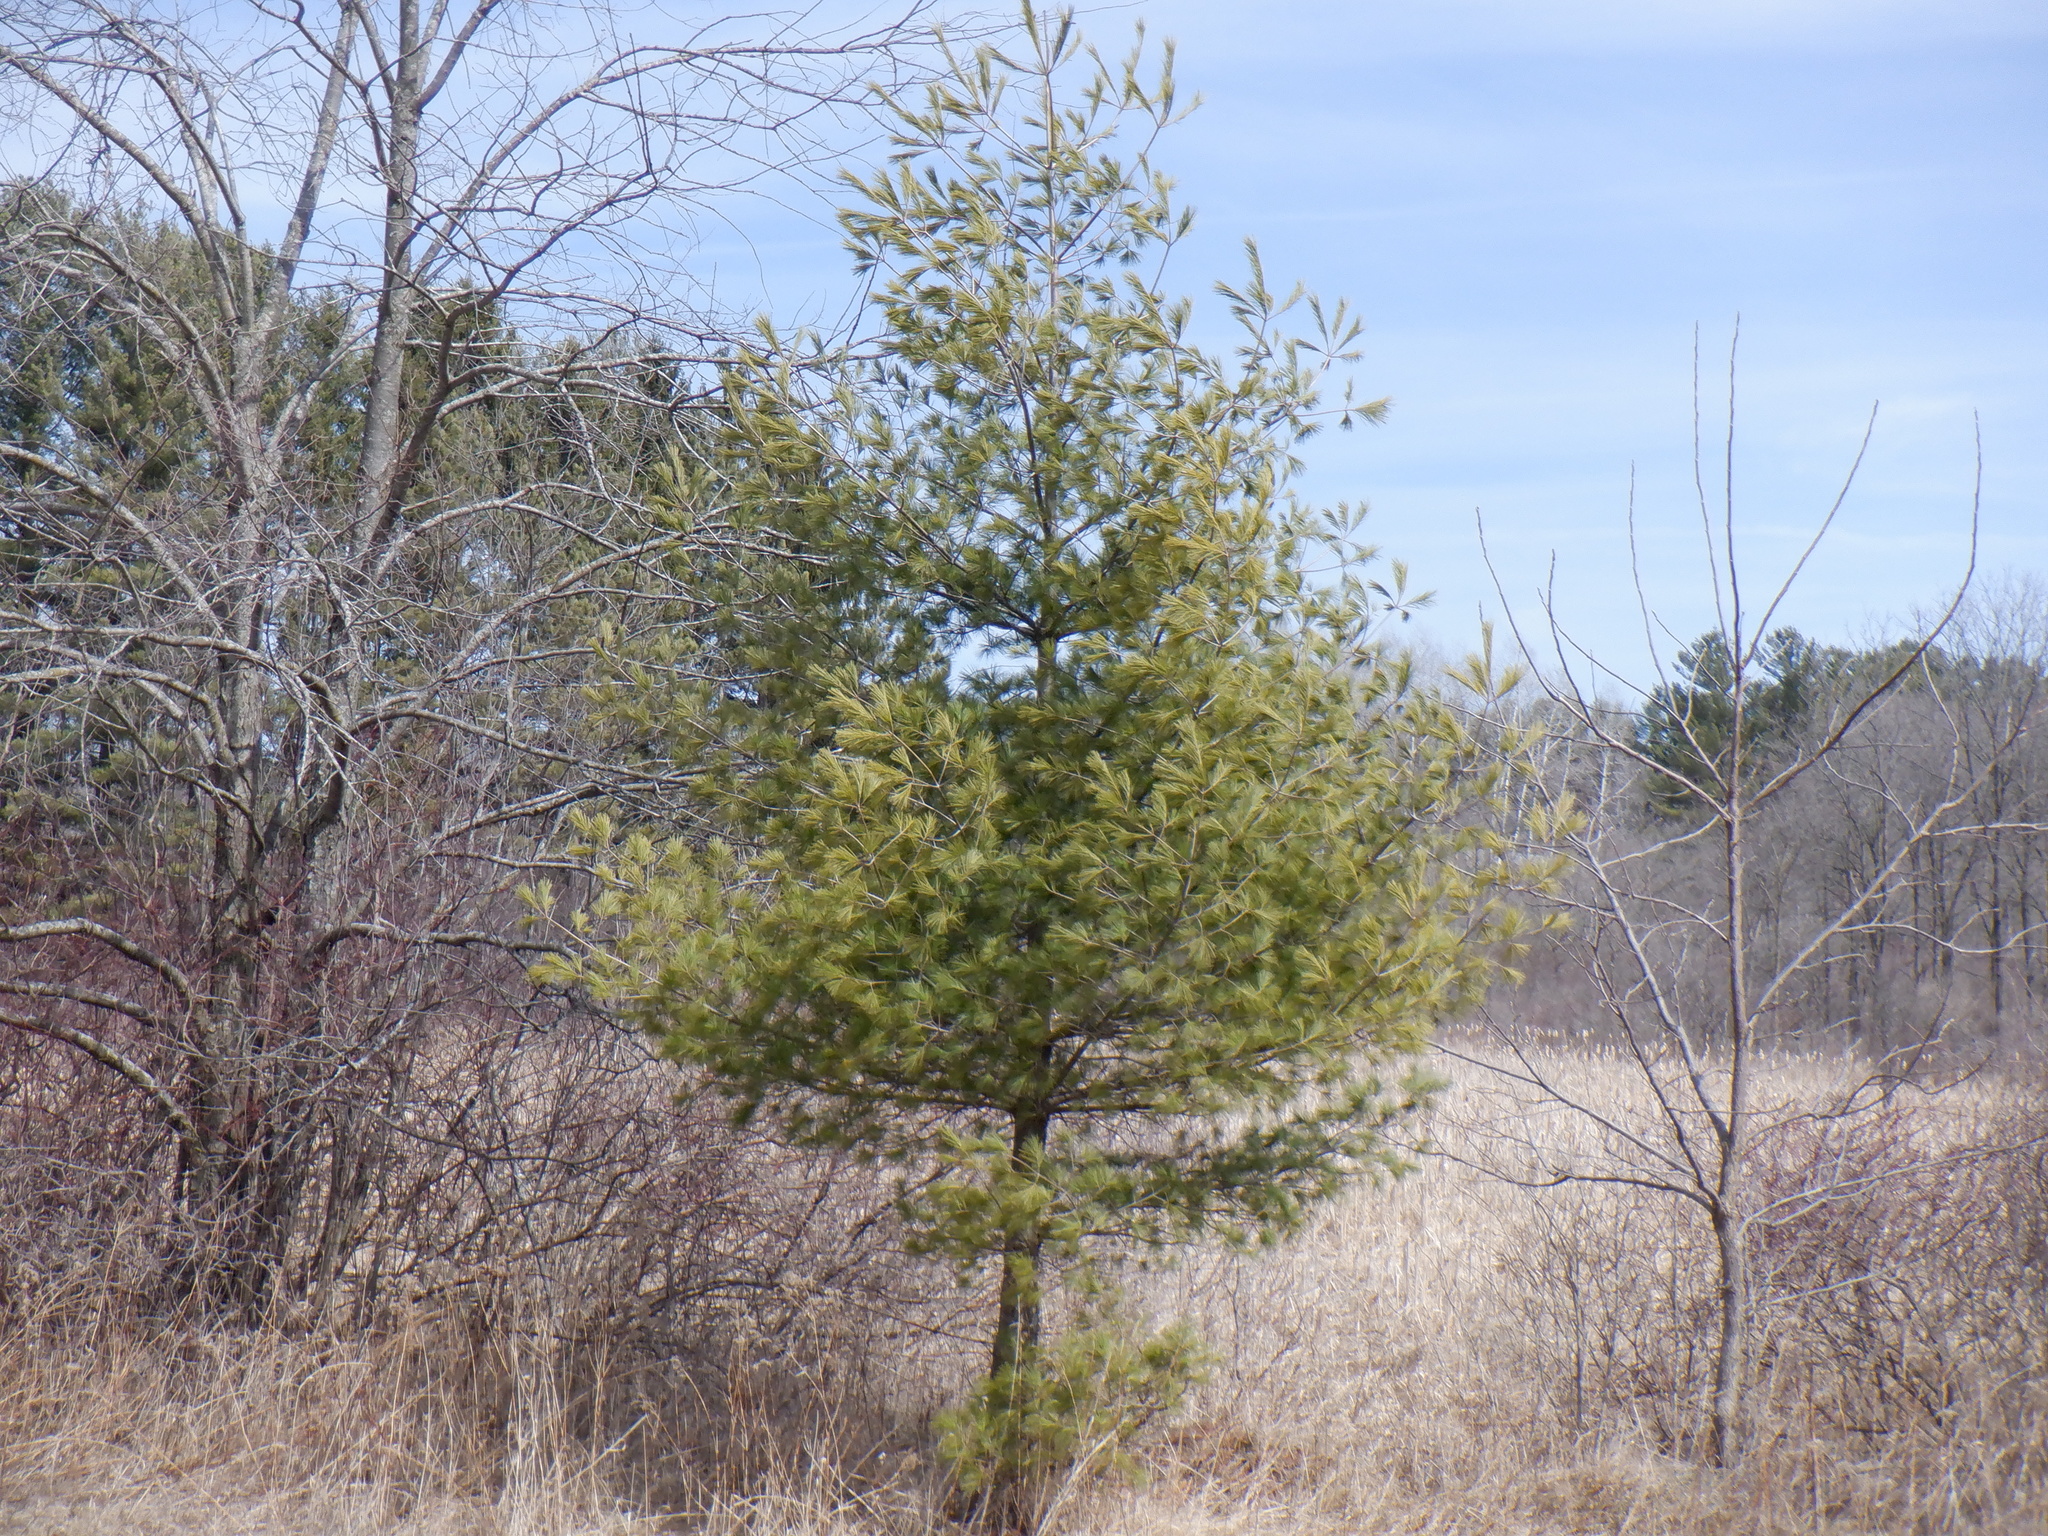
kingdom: Plantae
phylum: Tracheophyta
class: Pinopsida
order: Pinales
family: Pinaceae
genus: Pinus
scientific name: Pinus strobus
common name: Weymouth pine
